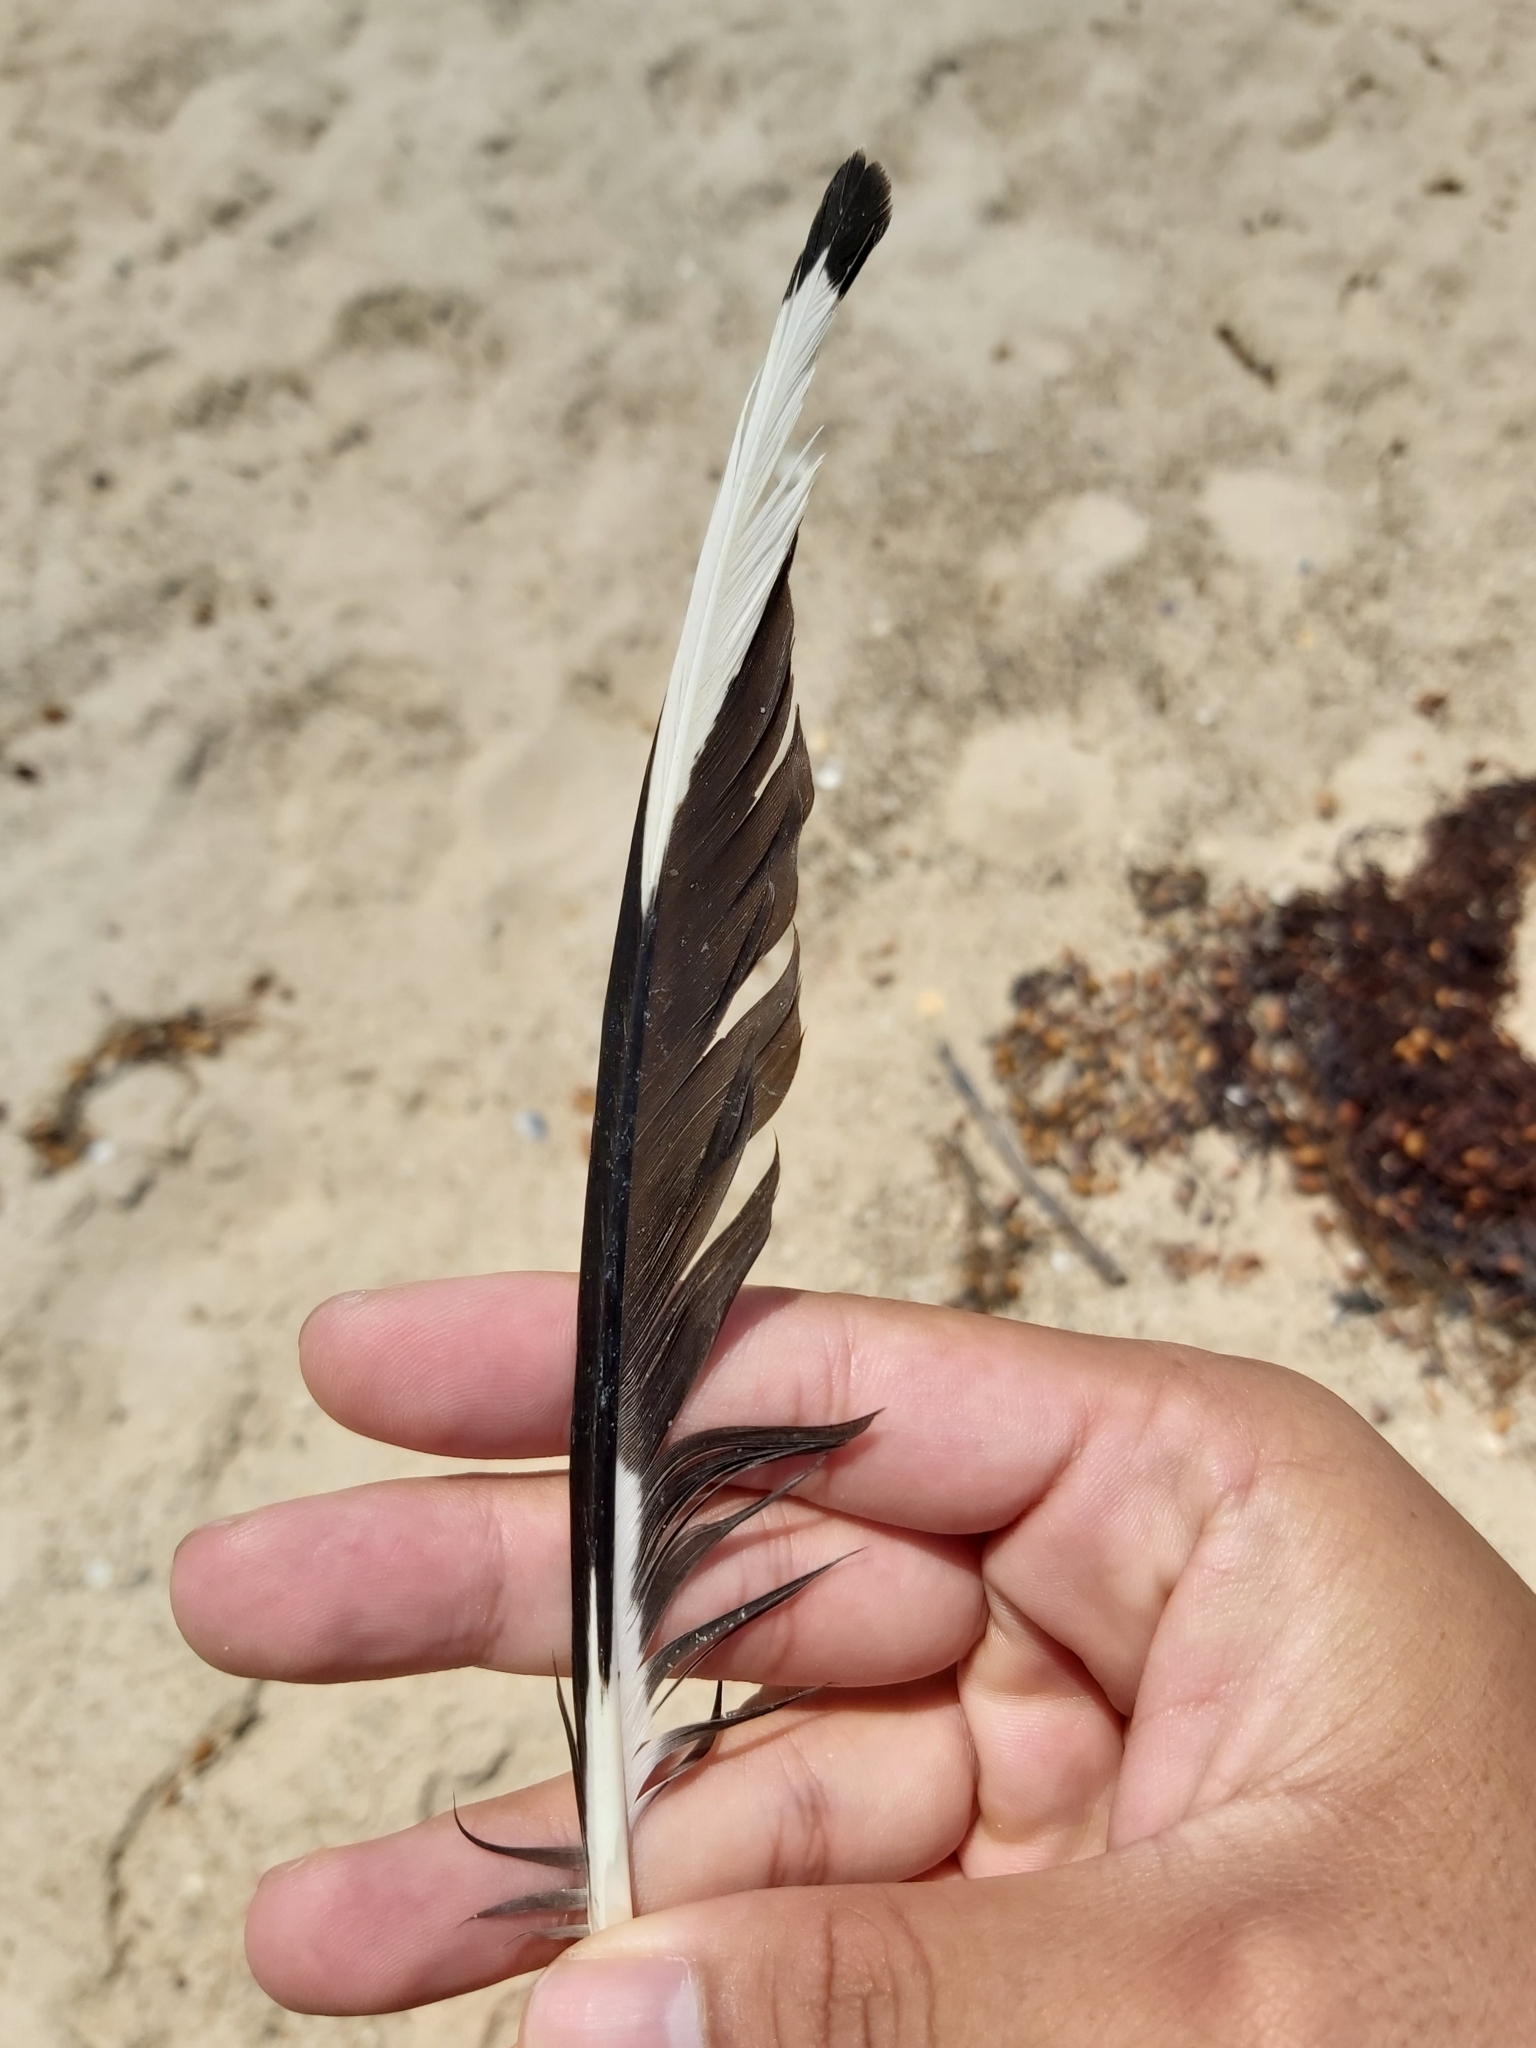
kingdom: Animalia
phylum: Chordata
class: Aves
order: Charadriiformes
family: Laridae
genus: Chroicocephalus
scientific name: Chroicocephalus novaehollandiae
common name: Silver gull
